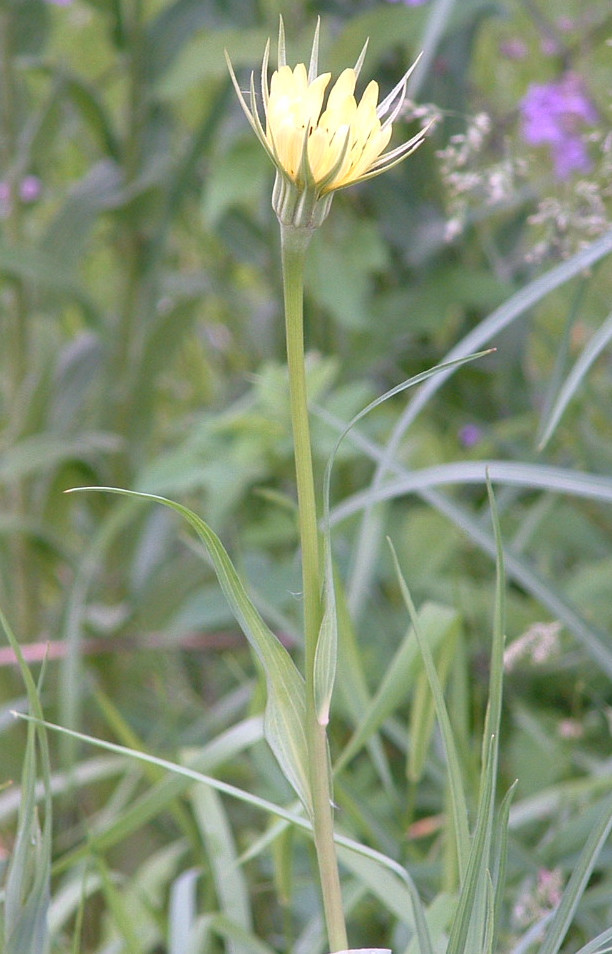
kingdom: Plantae
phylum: Tracheophyta
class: Magnoliopsida
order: Asterales
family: Asteraceae
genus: Tragopogon
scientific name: Tragopogon dubius
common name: Yellow salsify
